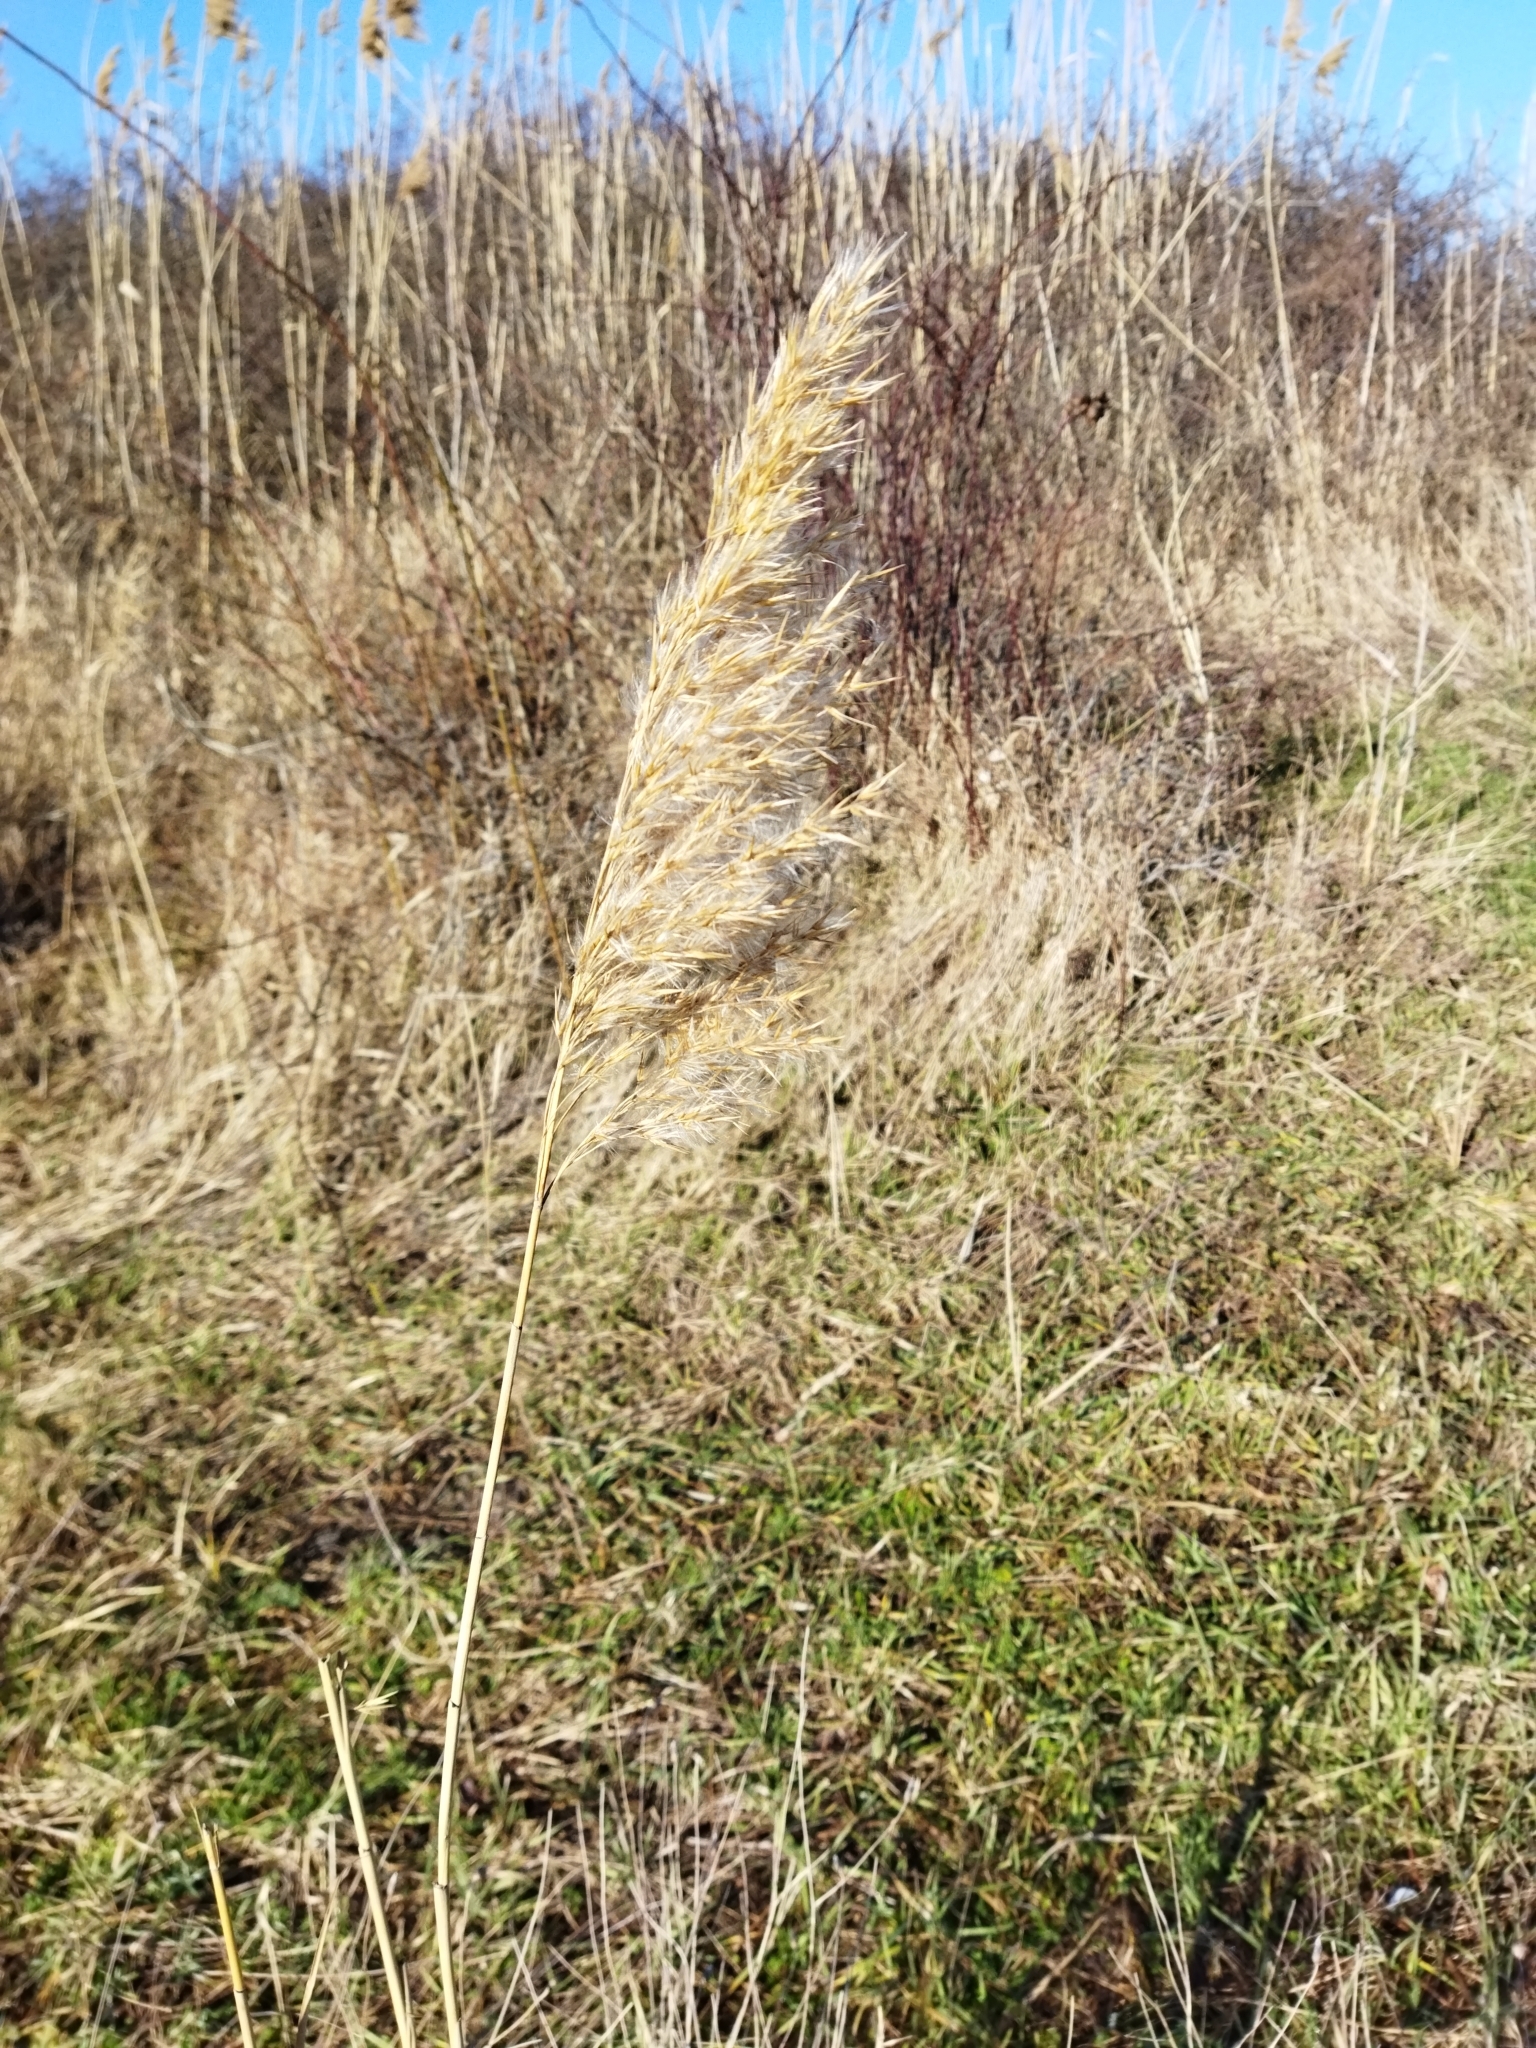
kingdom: Plantae
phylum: Tracheophyta
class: Liliopsida
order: Poales
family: Poaceae
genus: Phragmites
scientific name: Phragmites australis
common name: Common reed
